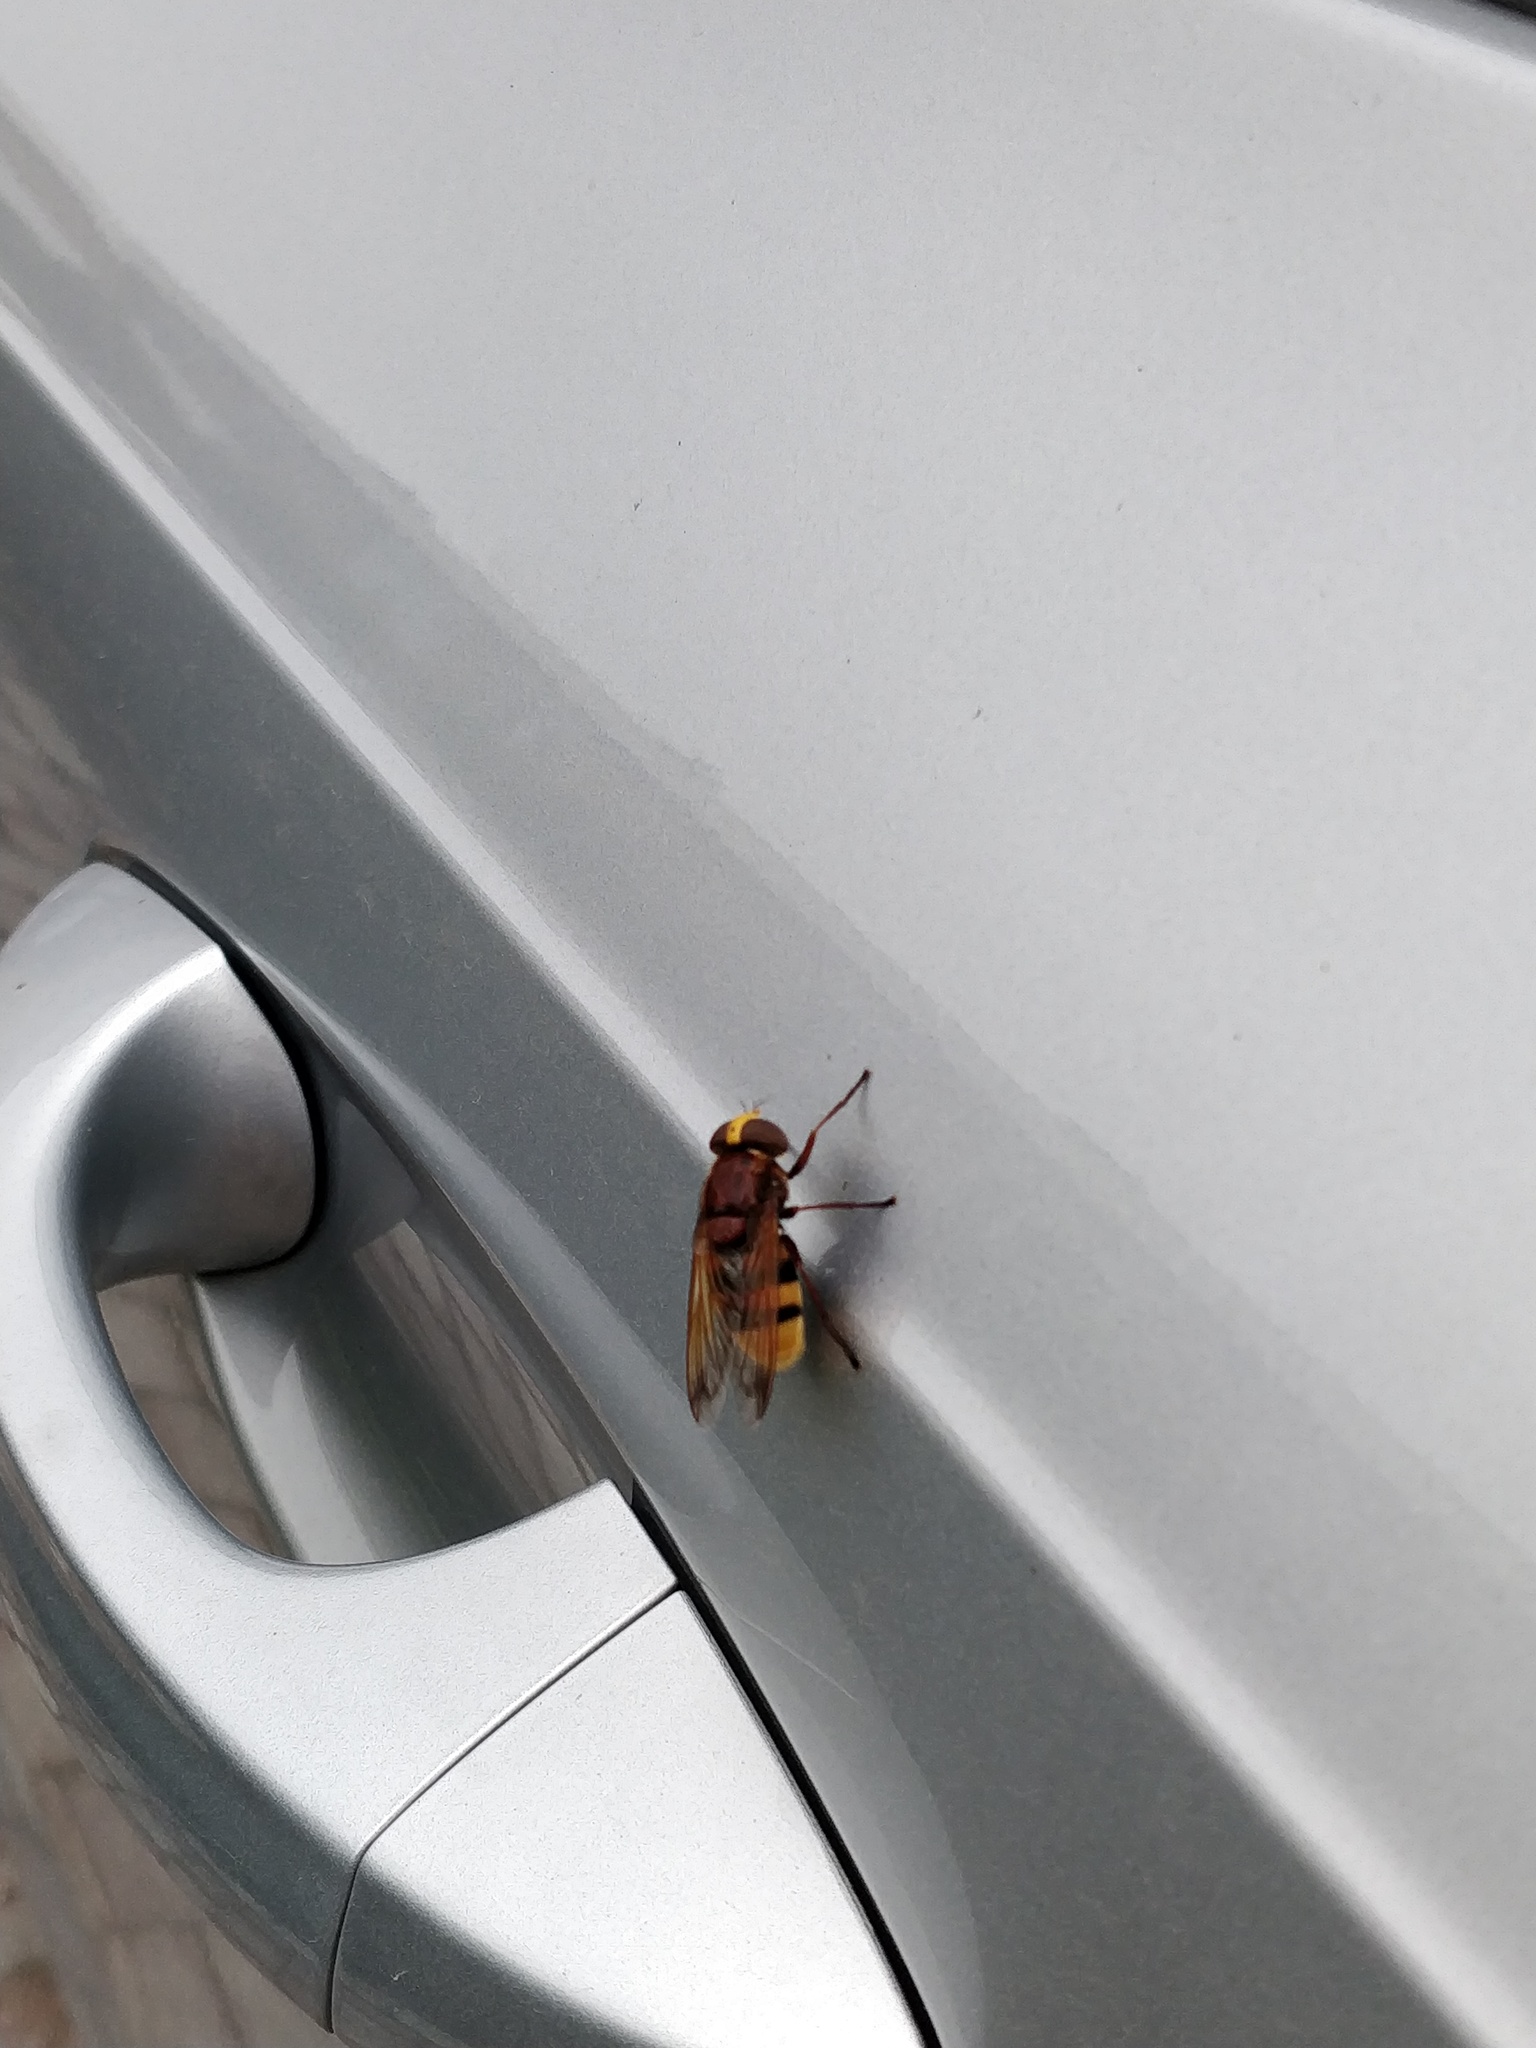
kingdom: Animalia
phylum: Arthropoda
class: Insecta
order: Diptera
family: Syrphidae
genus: Volucella
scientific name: Volucella zonaria
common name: Hornet hoverfly
